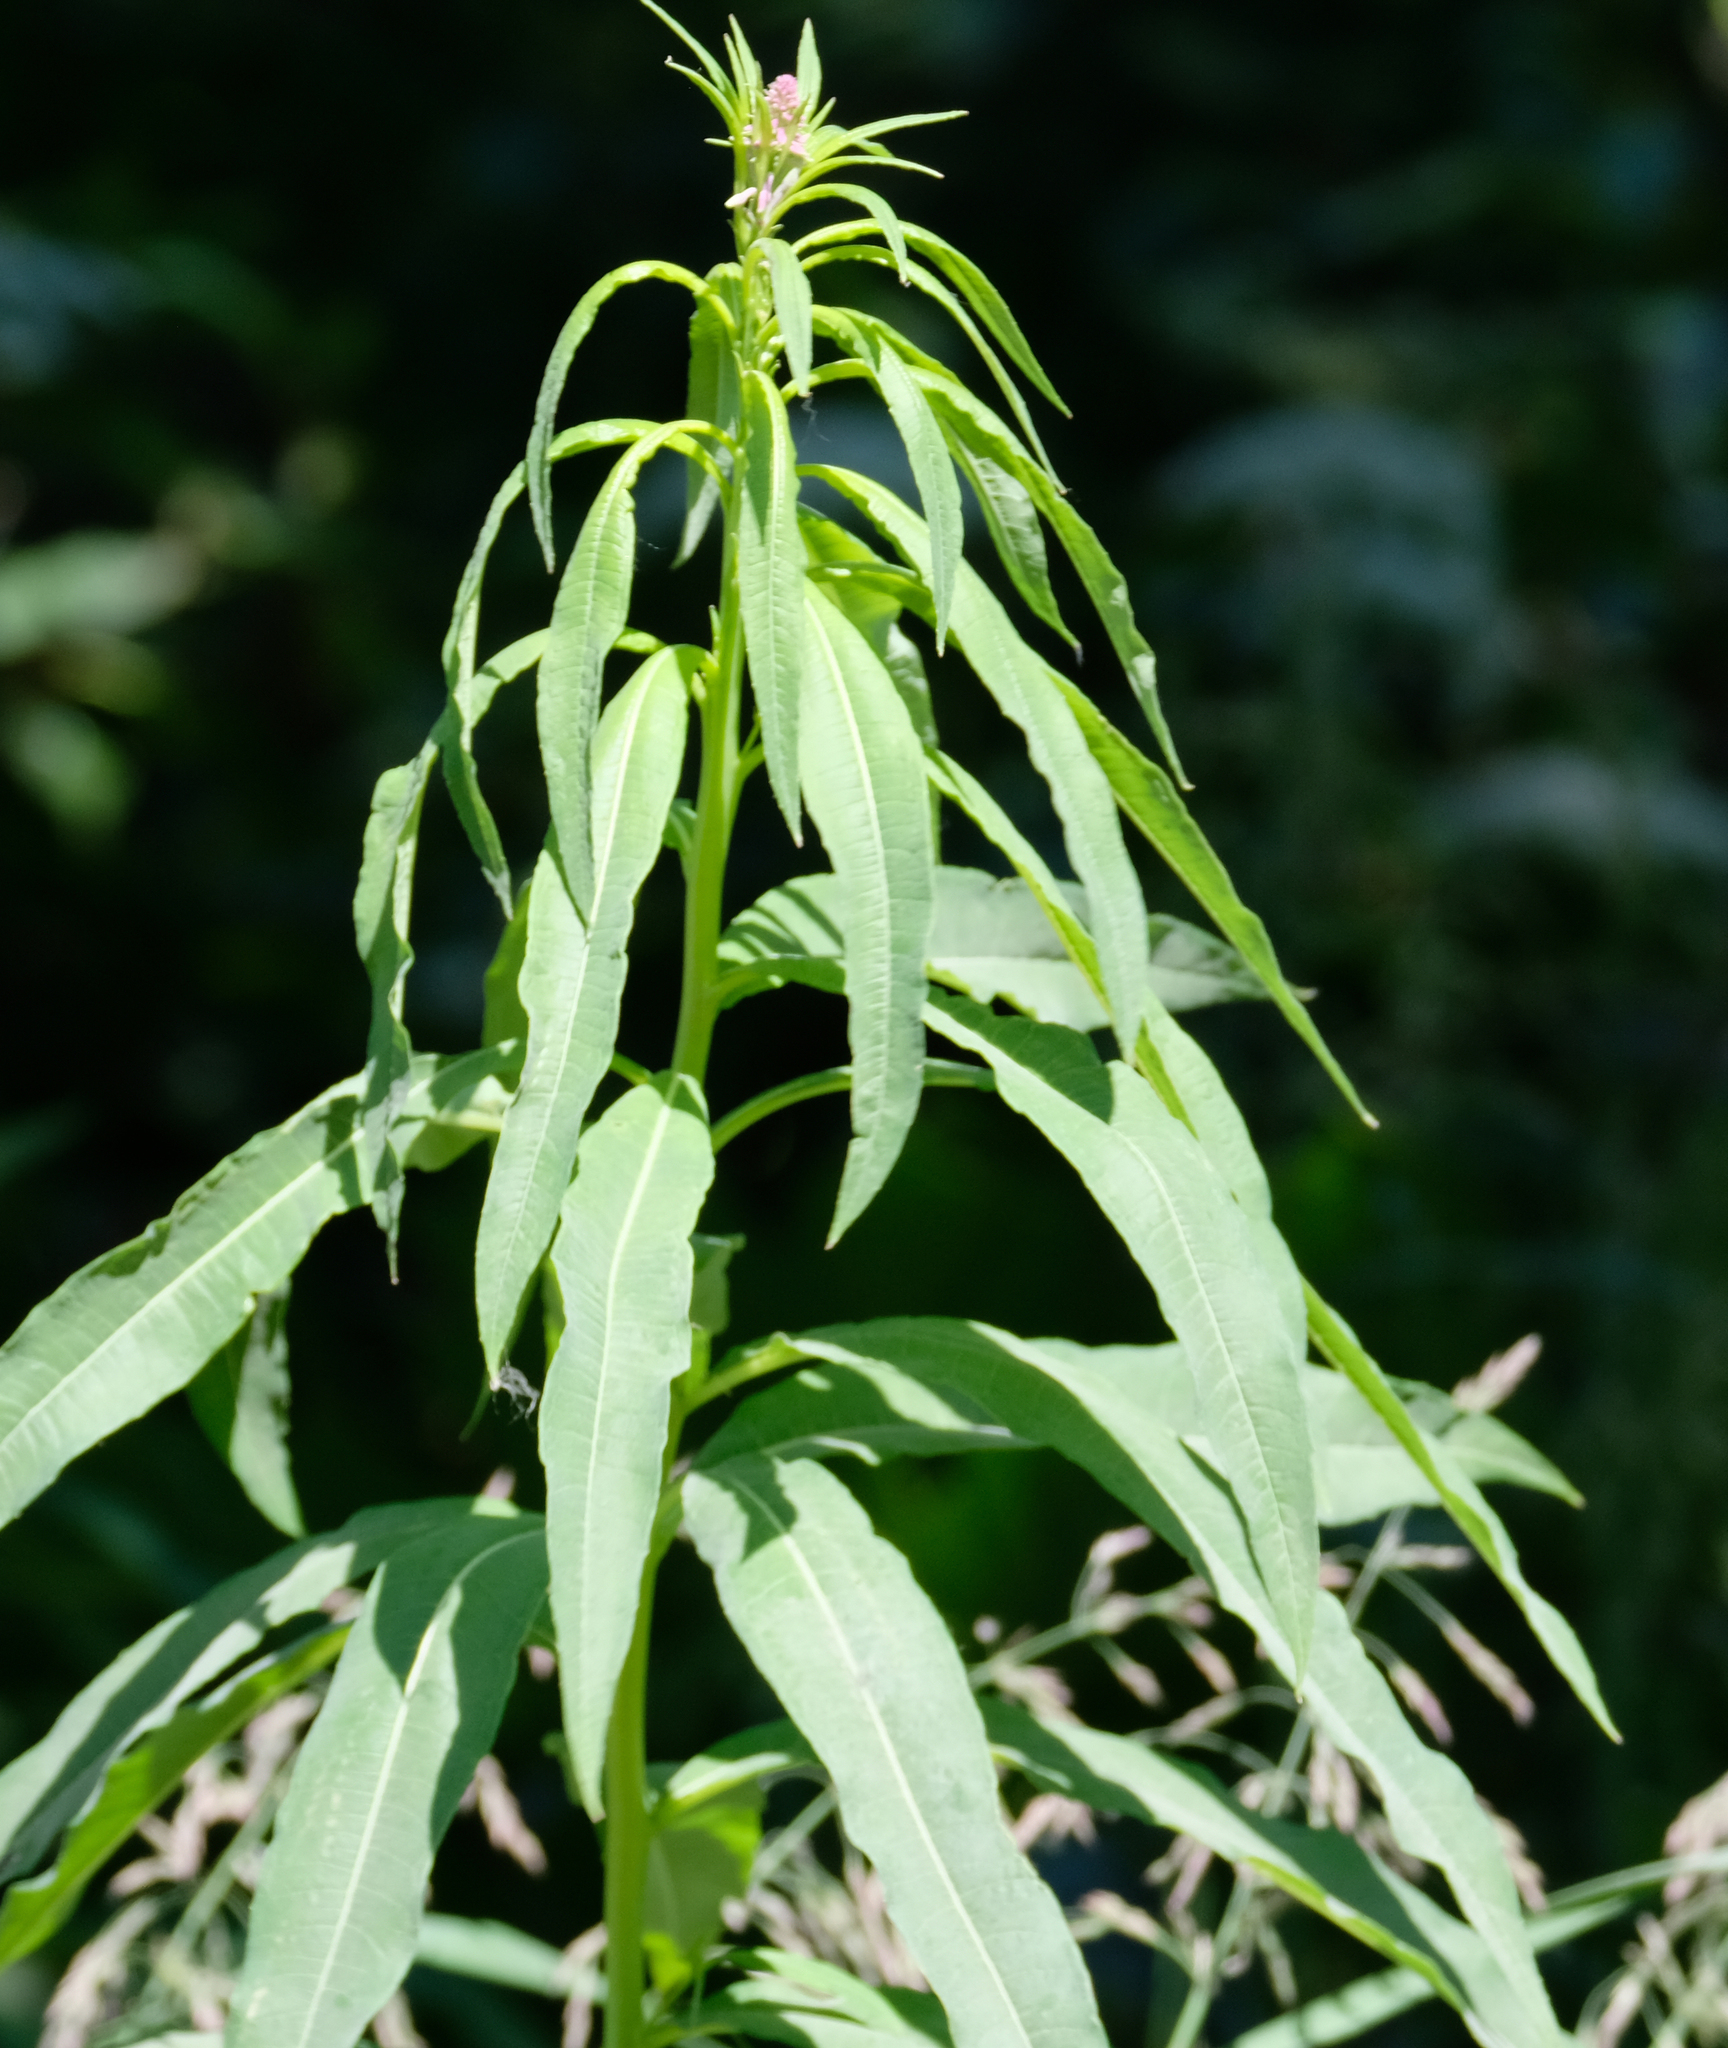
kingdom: Plantae
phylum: Tracheophyta
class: Magnoliopsida
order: Myrtales
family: Onagraceae
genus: Chamaenerion
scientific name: Chamaenerion angustifolium
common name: Fireweed
